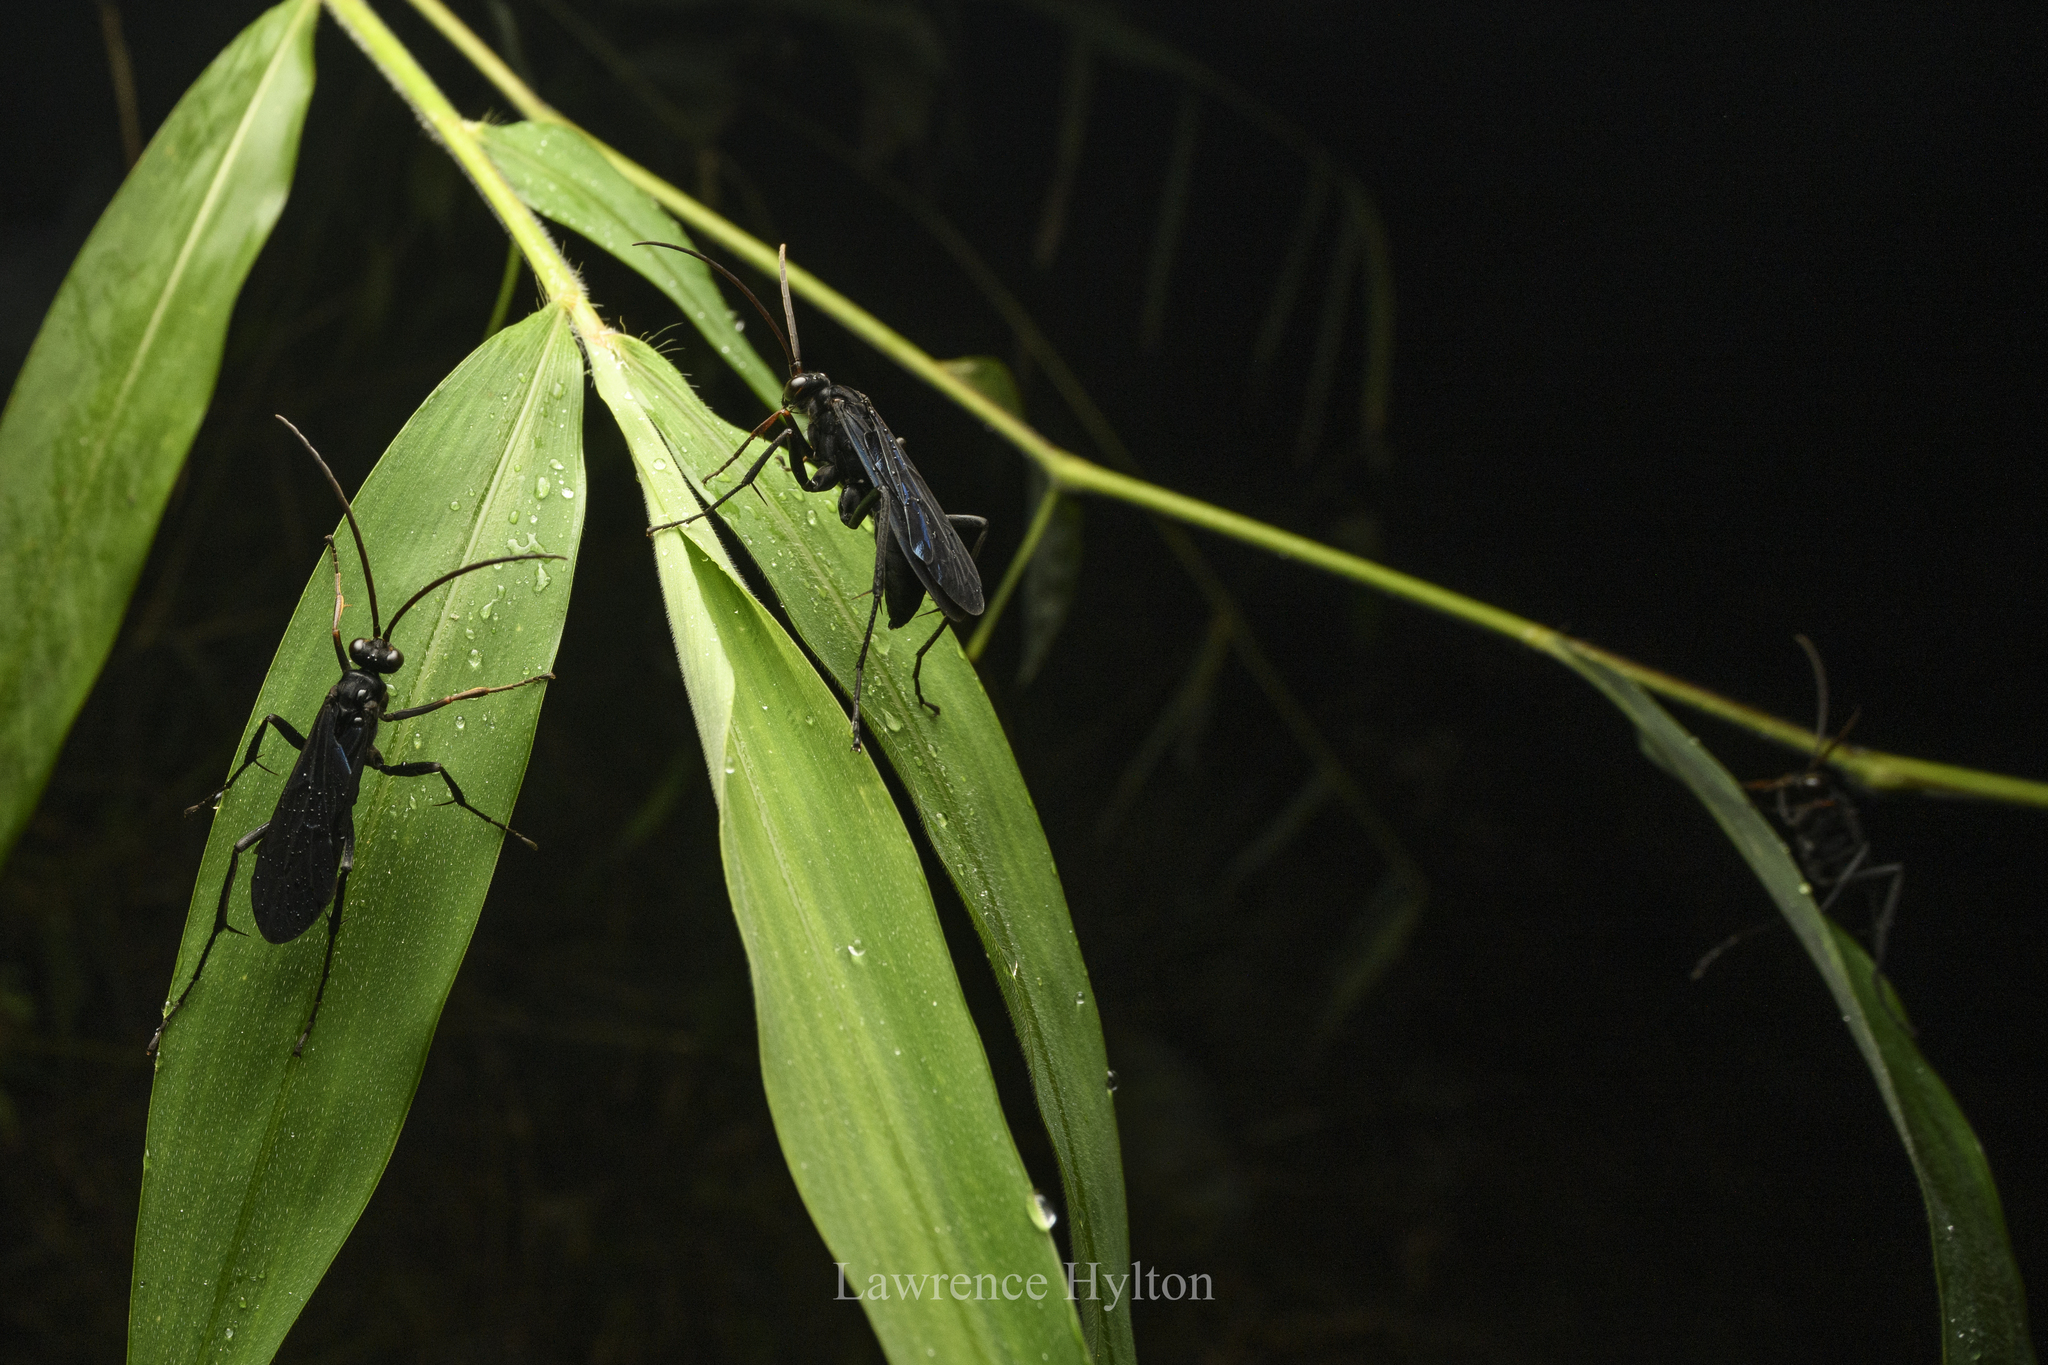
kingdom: Animalia
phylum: Arthropoda
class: Insecta
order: Hymenoptera
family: Pompilidae
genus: Cyphononyx
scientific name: Cyphononyx bipartitus
